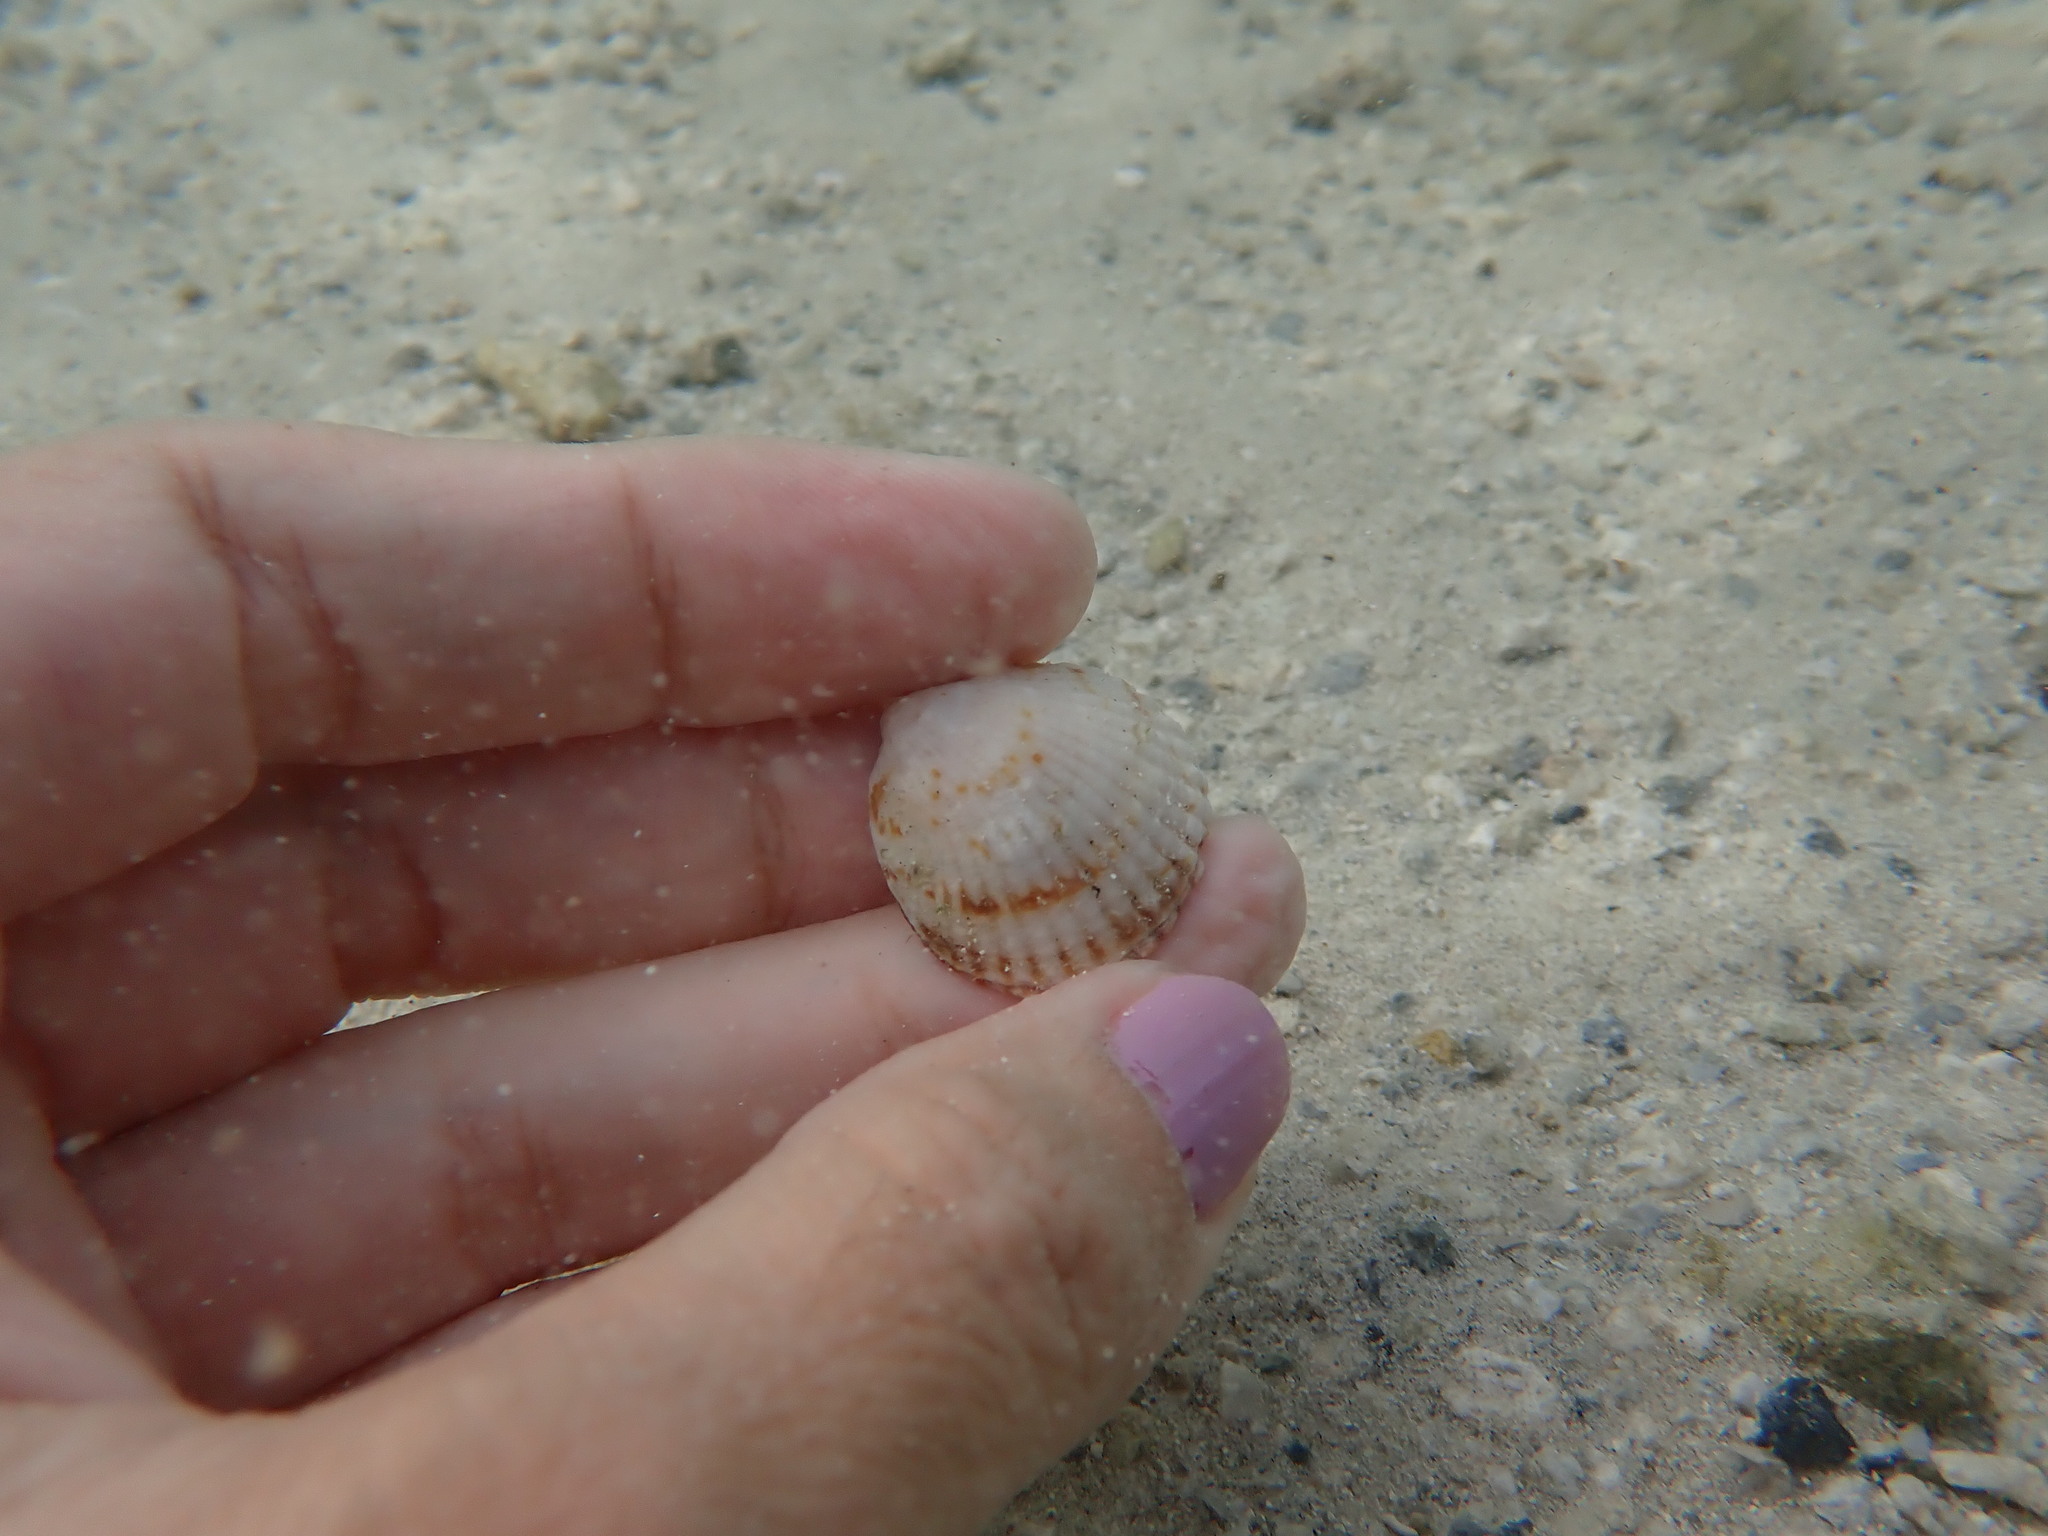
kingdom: Animalia
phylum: Mollusca
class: Bivalvia
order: Arcida
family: Glycymerididae
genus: Tucetona
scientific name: Tucetona pectinata
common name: Comb bittersweet
